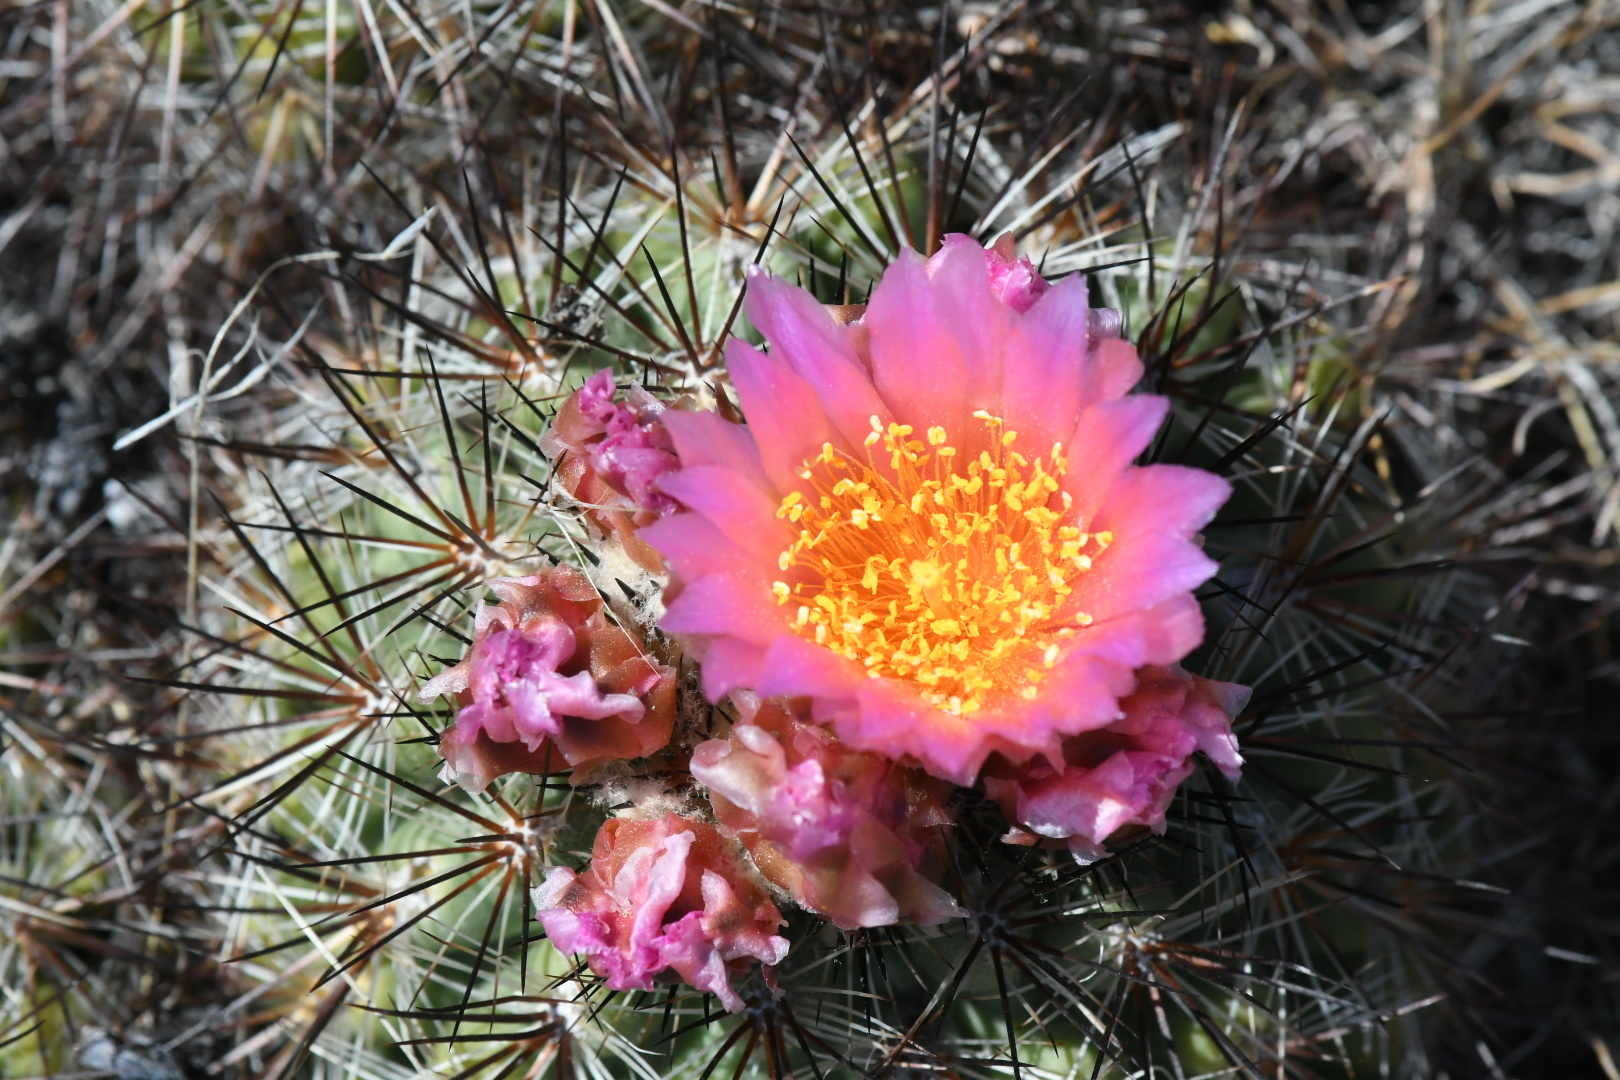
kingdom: Plantae
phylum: Tracheophyta
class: Magnoliopsida
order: Caryophyllales
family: Cactaceae
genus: Pediocactus
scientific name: Pediocactus nigrispinus
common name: Simpson's hedgehog cactus
